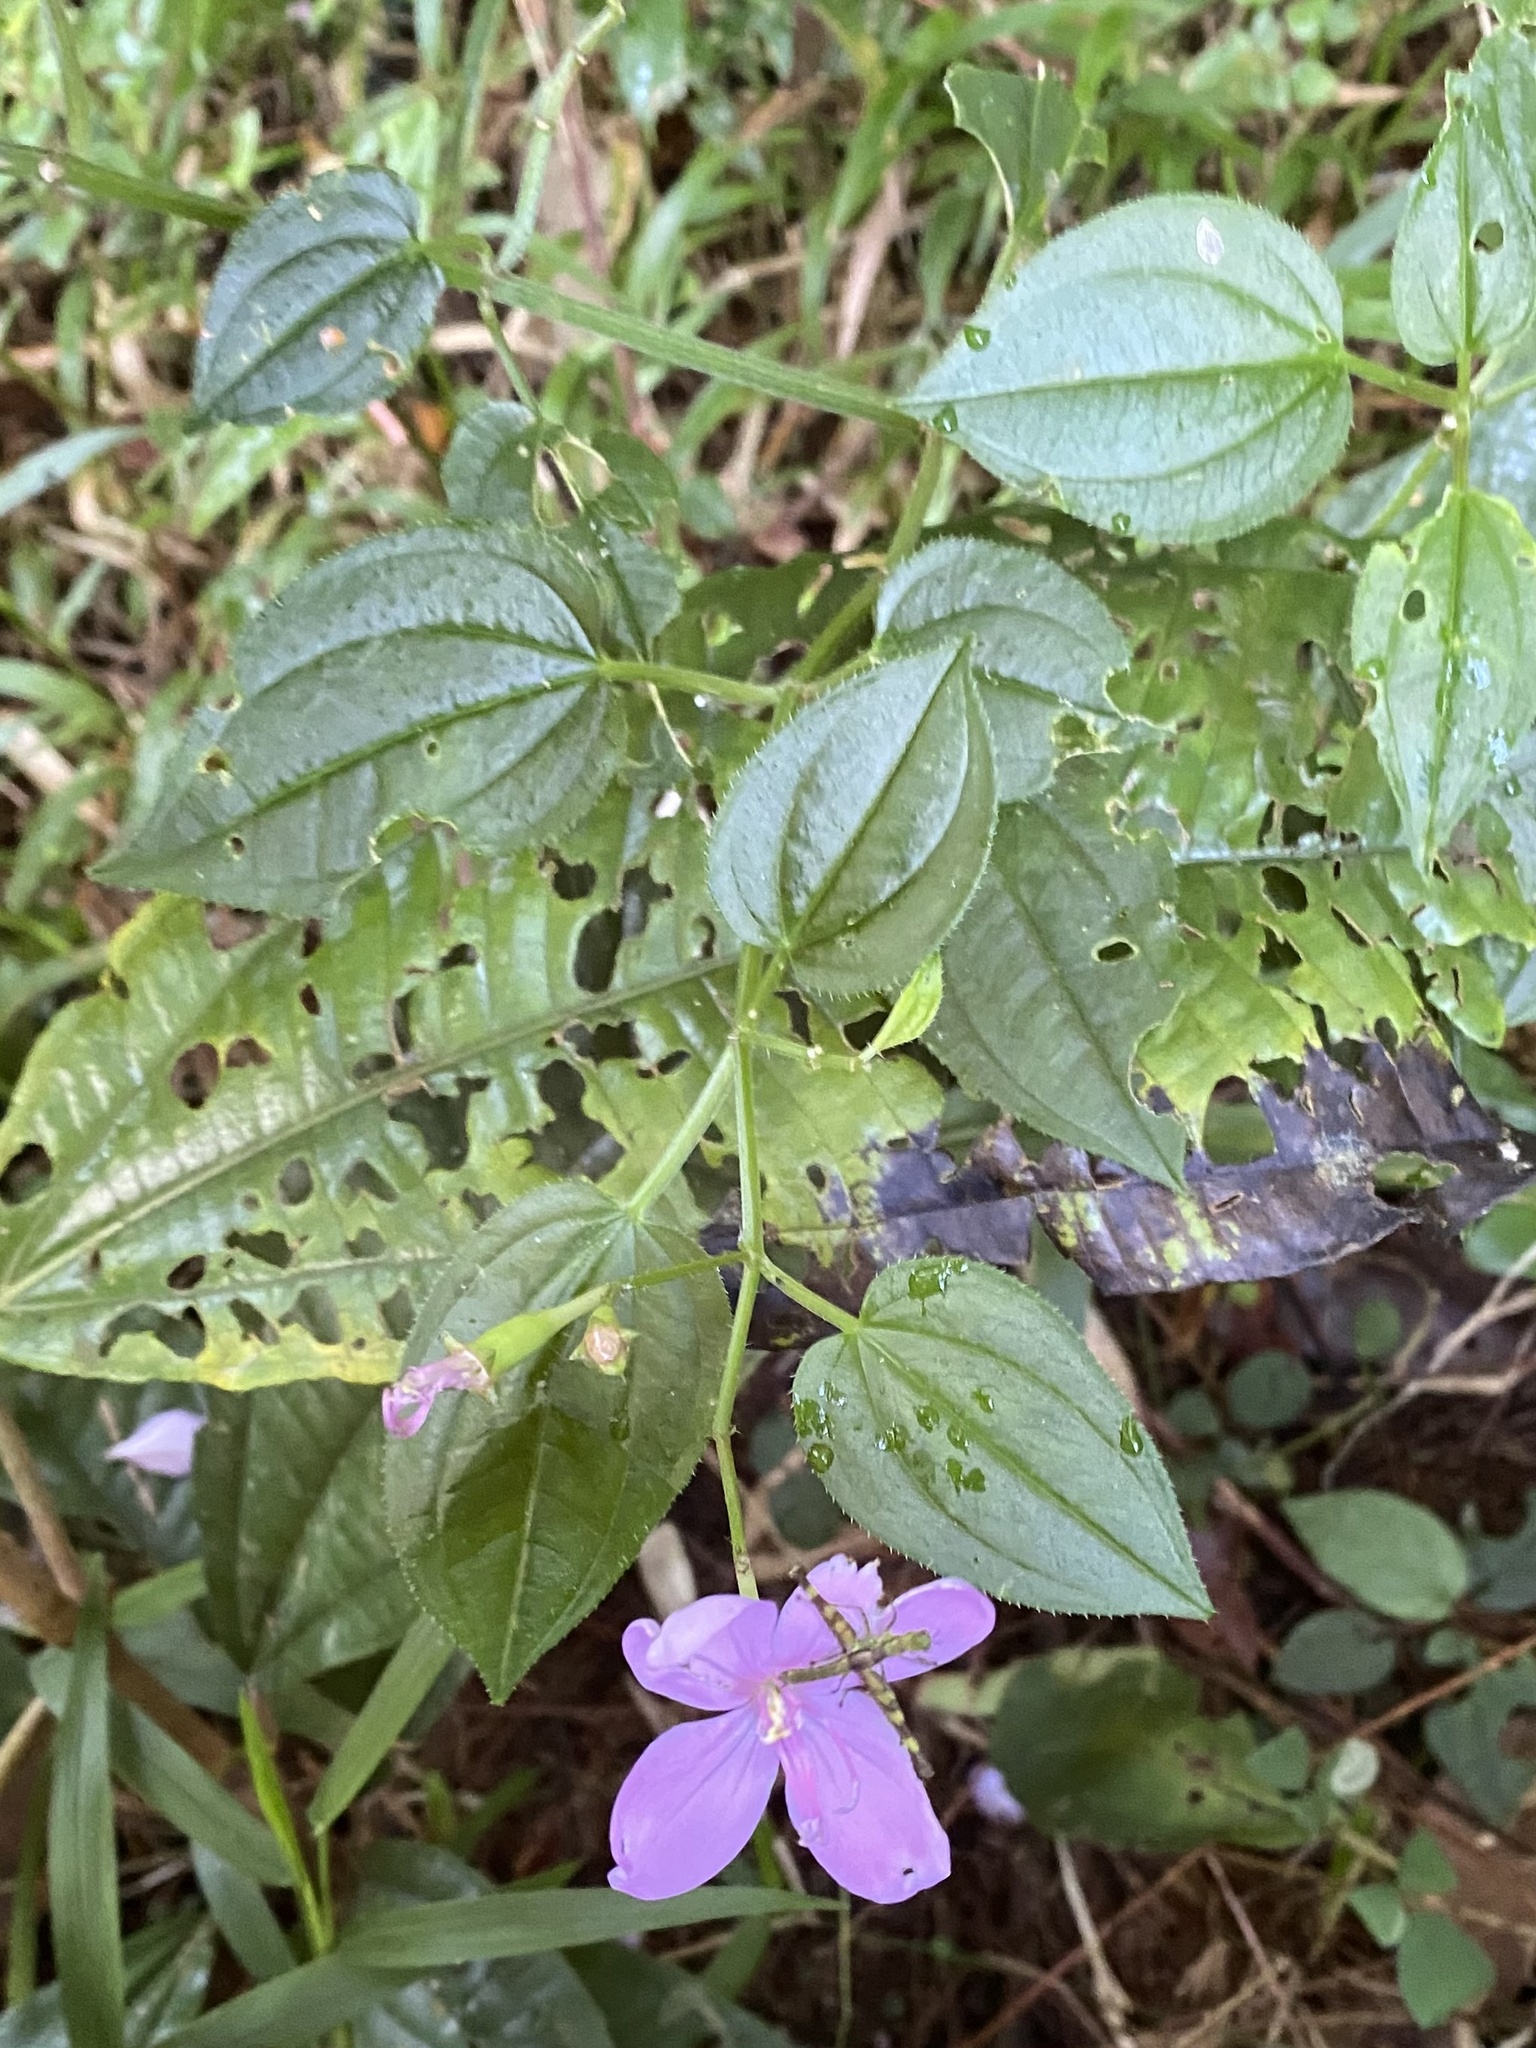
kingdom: Plantae
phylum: Tracheophyta
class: Magnoliopsida
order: Myrtales
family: Melastomataceae
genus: Arthrostemma
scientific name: Arthrostemma ciliatum
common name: Everblooming eavender
